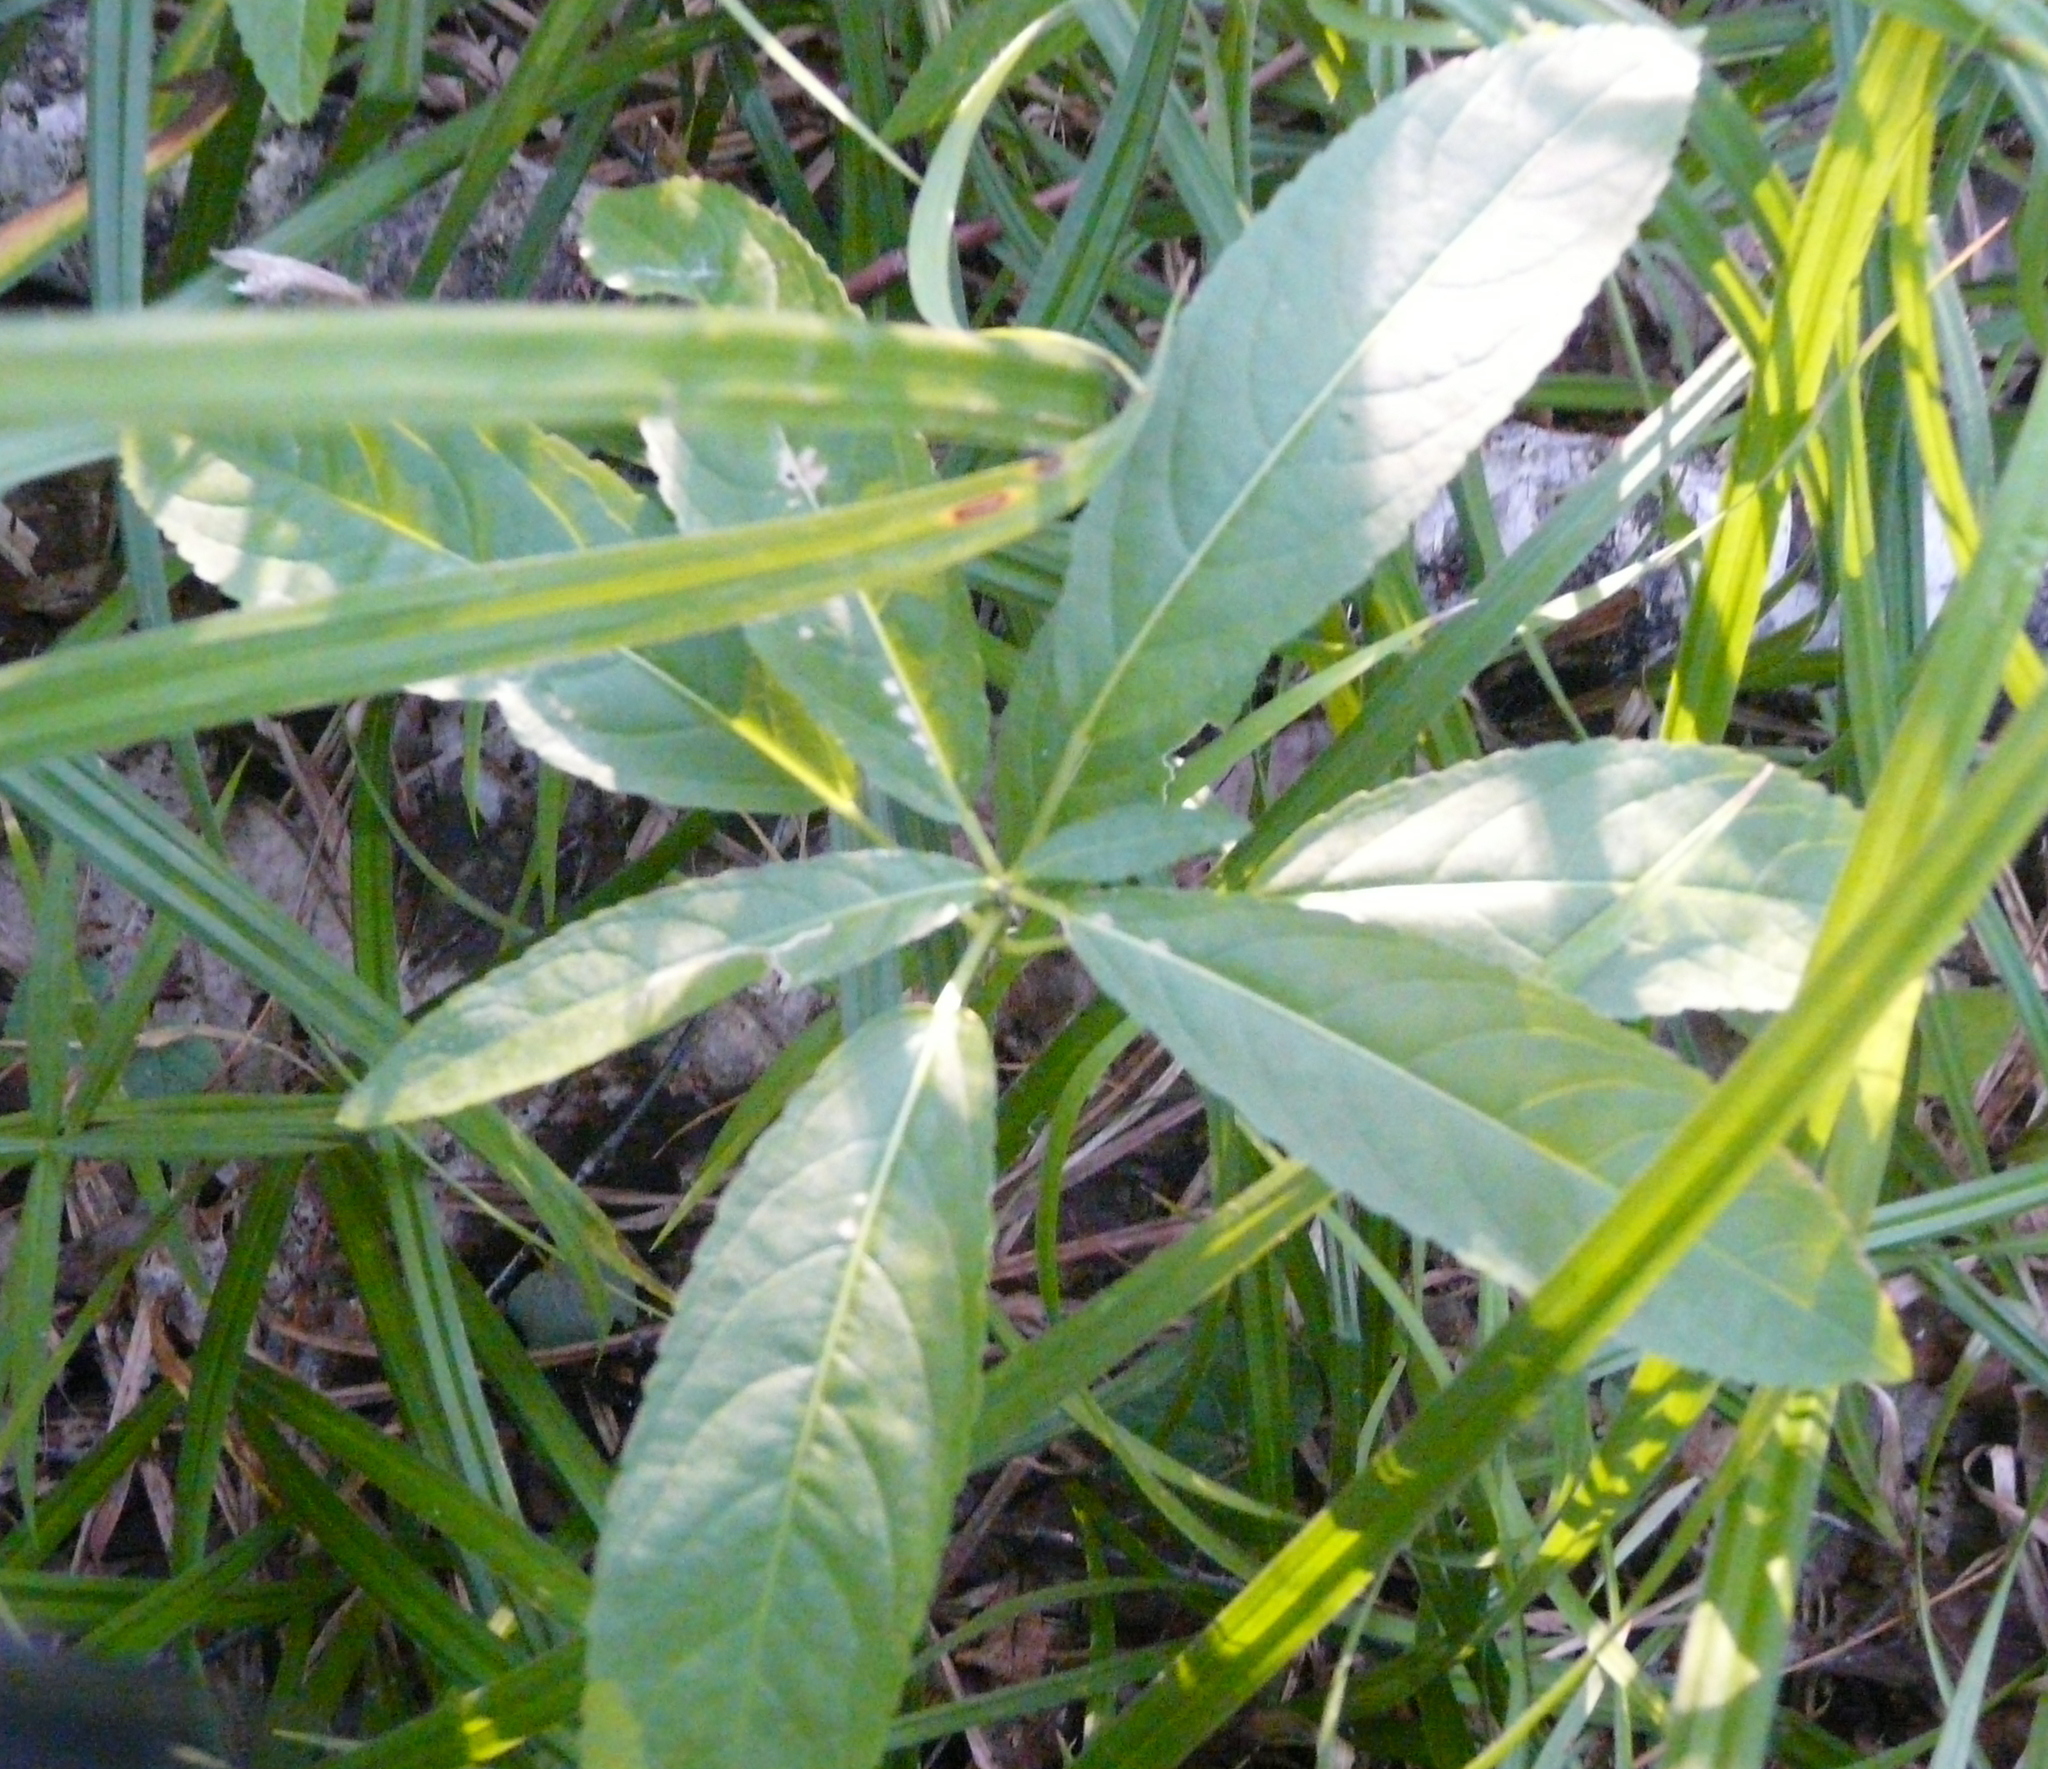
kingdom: Plantae
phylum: Tracheophyta
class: Magnoliopsida
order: Malpighiales
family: Euphorbiaceae
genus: Mercurialis
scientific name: Mercurialis perennis
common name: Dog mercury
